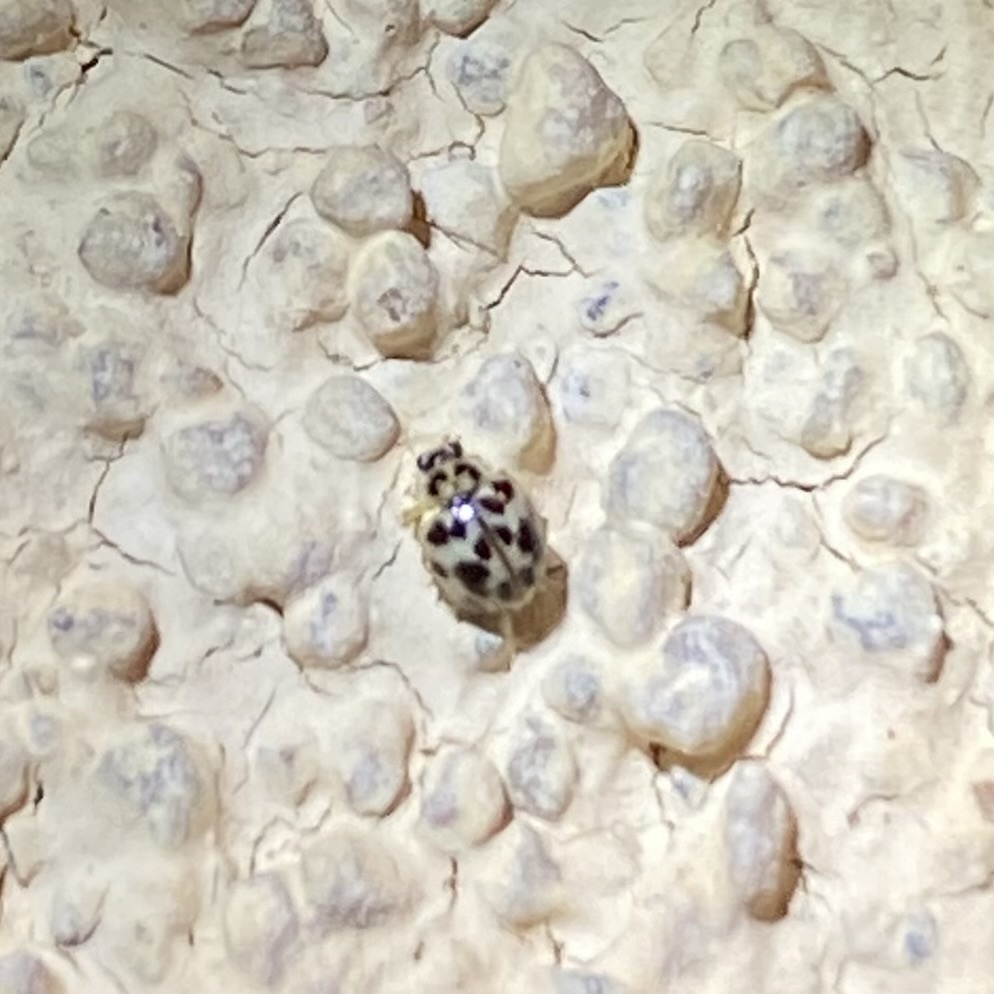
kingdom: Animalia
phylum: Arthropoda
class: Insecta
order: Coleoptera
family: Coccinellidae
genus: Psyllobora
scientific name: Psyllobora vigintimaculata
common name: Ladybird beetle
